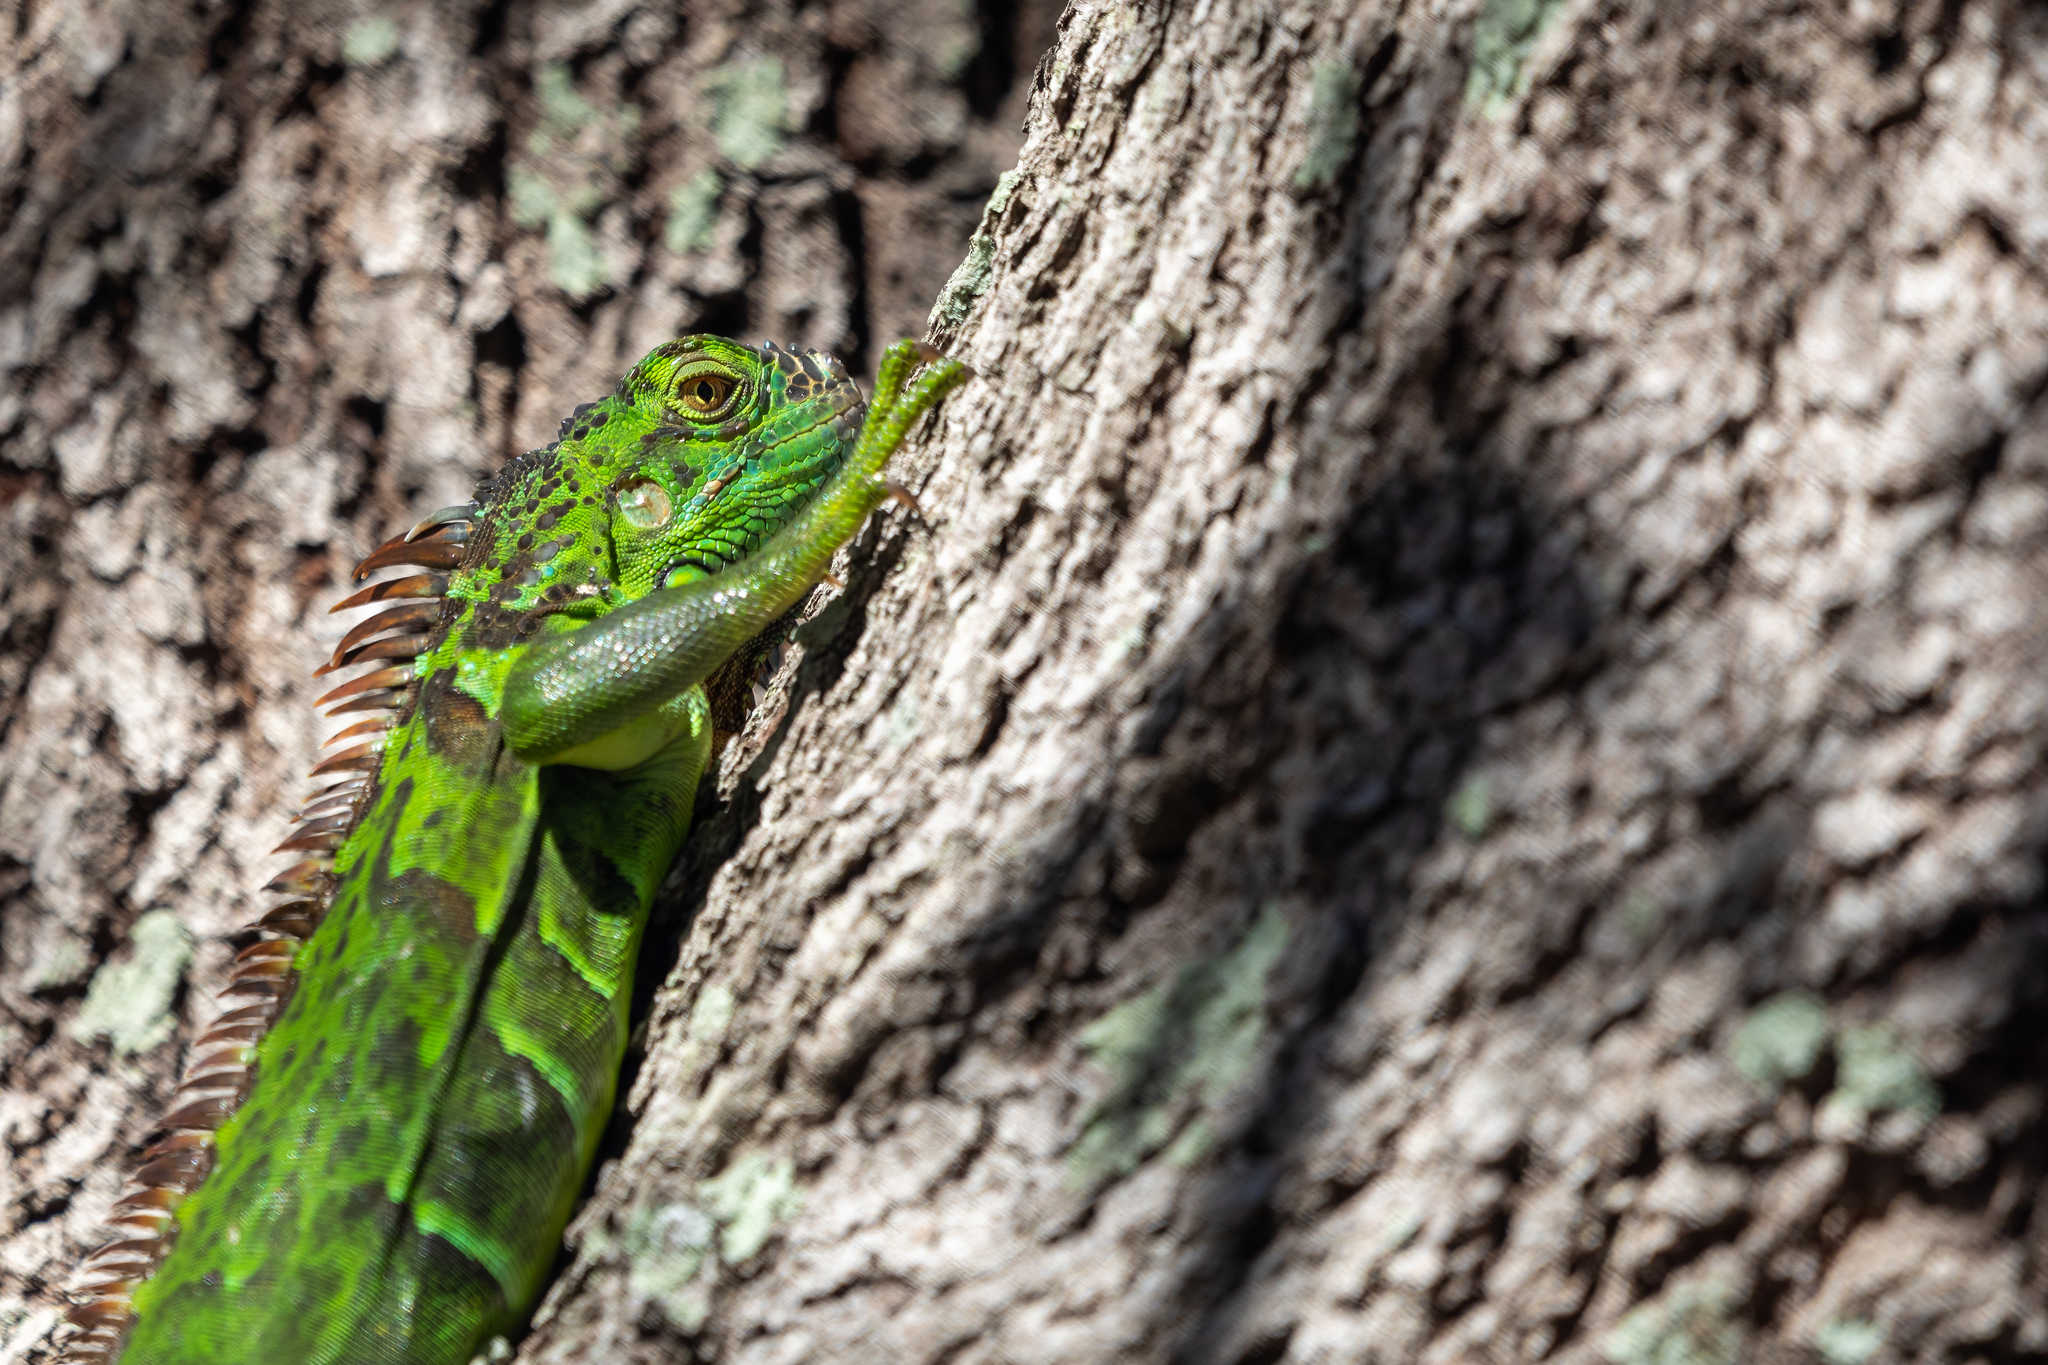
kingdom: Animalia
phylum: Chordata
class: Squamata
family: Iguanidae
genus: Iguana
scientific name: Iguana iguana
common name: Green iguana
